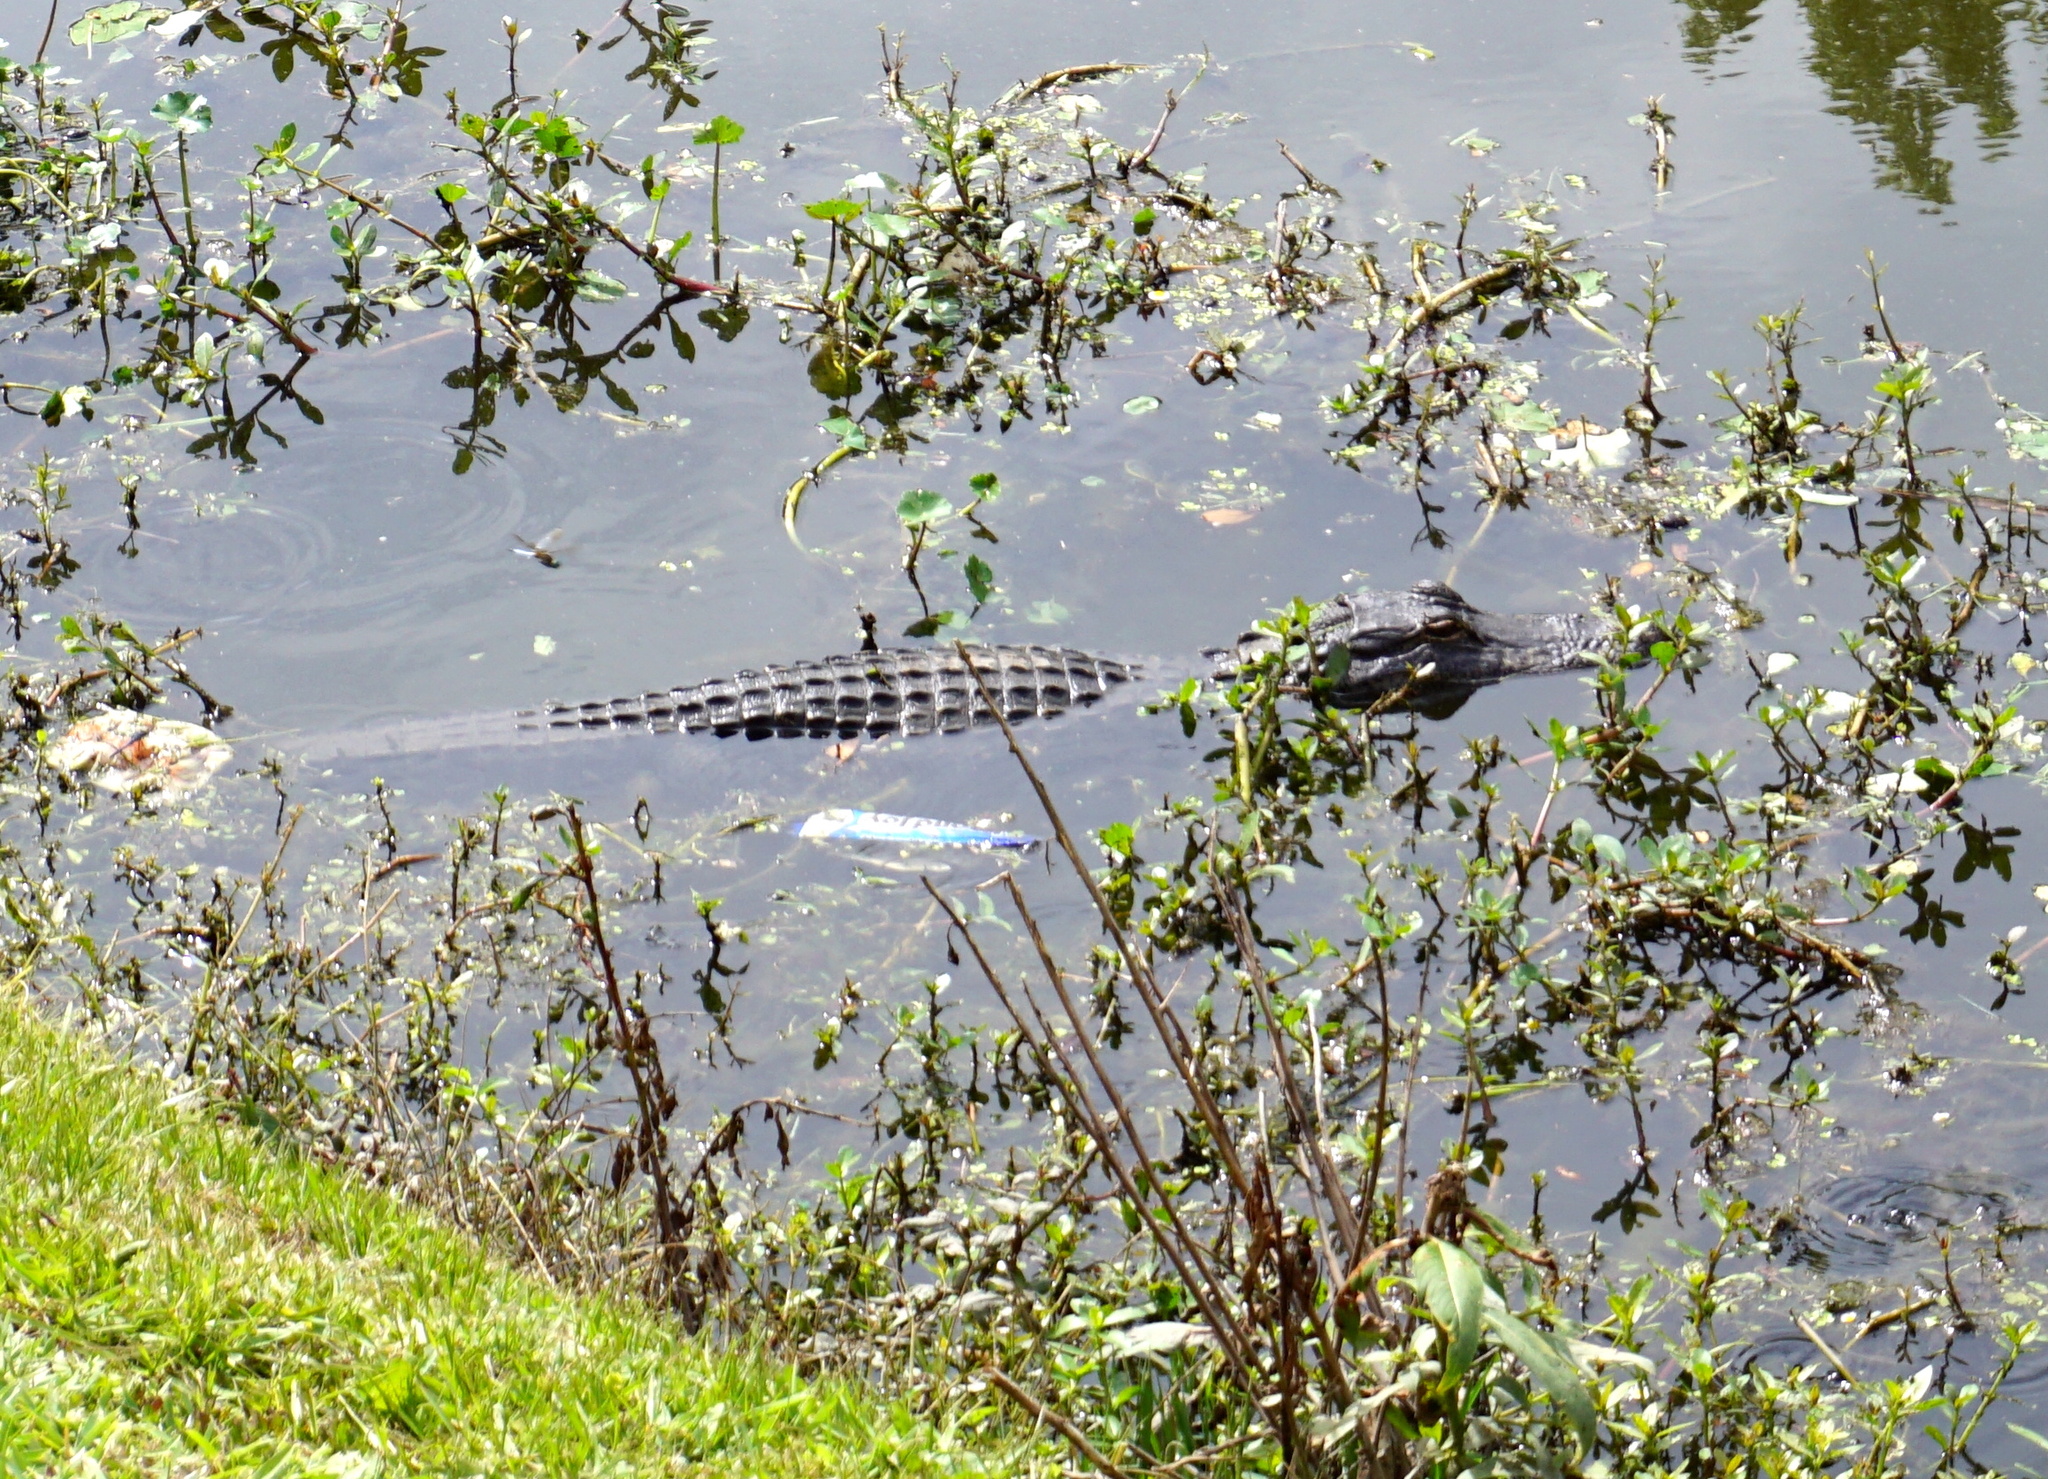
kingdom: Animalia
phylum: Chordata
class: Crocodylia
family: Alligatoridae
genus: Alligator
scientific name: Alligator mississippiensis
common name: American alligator
